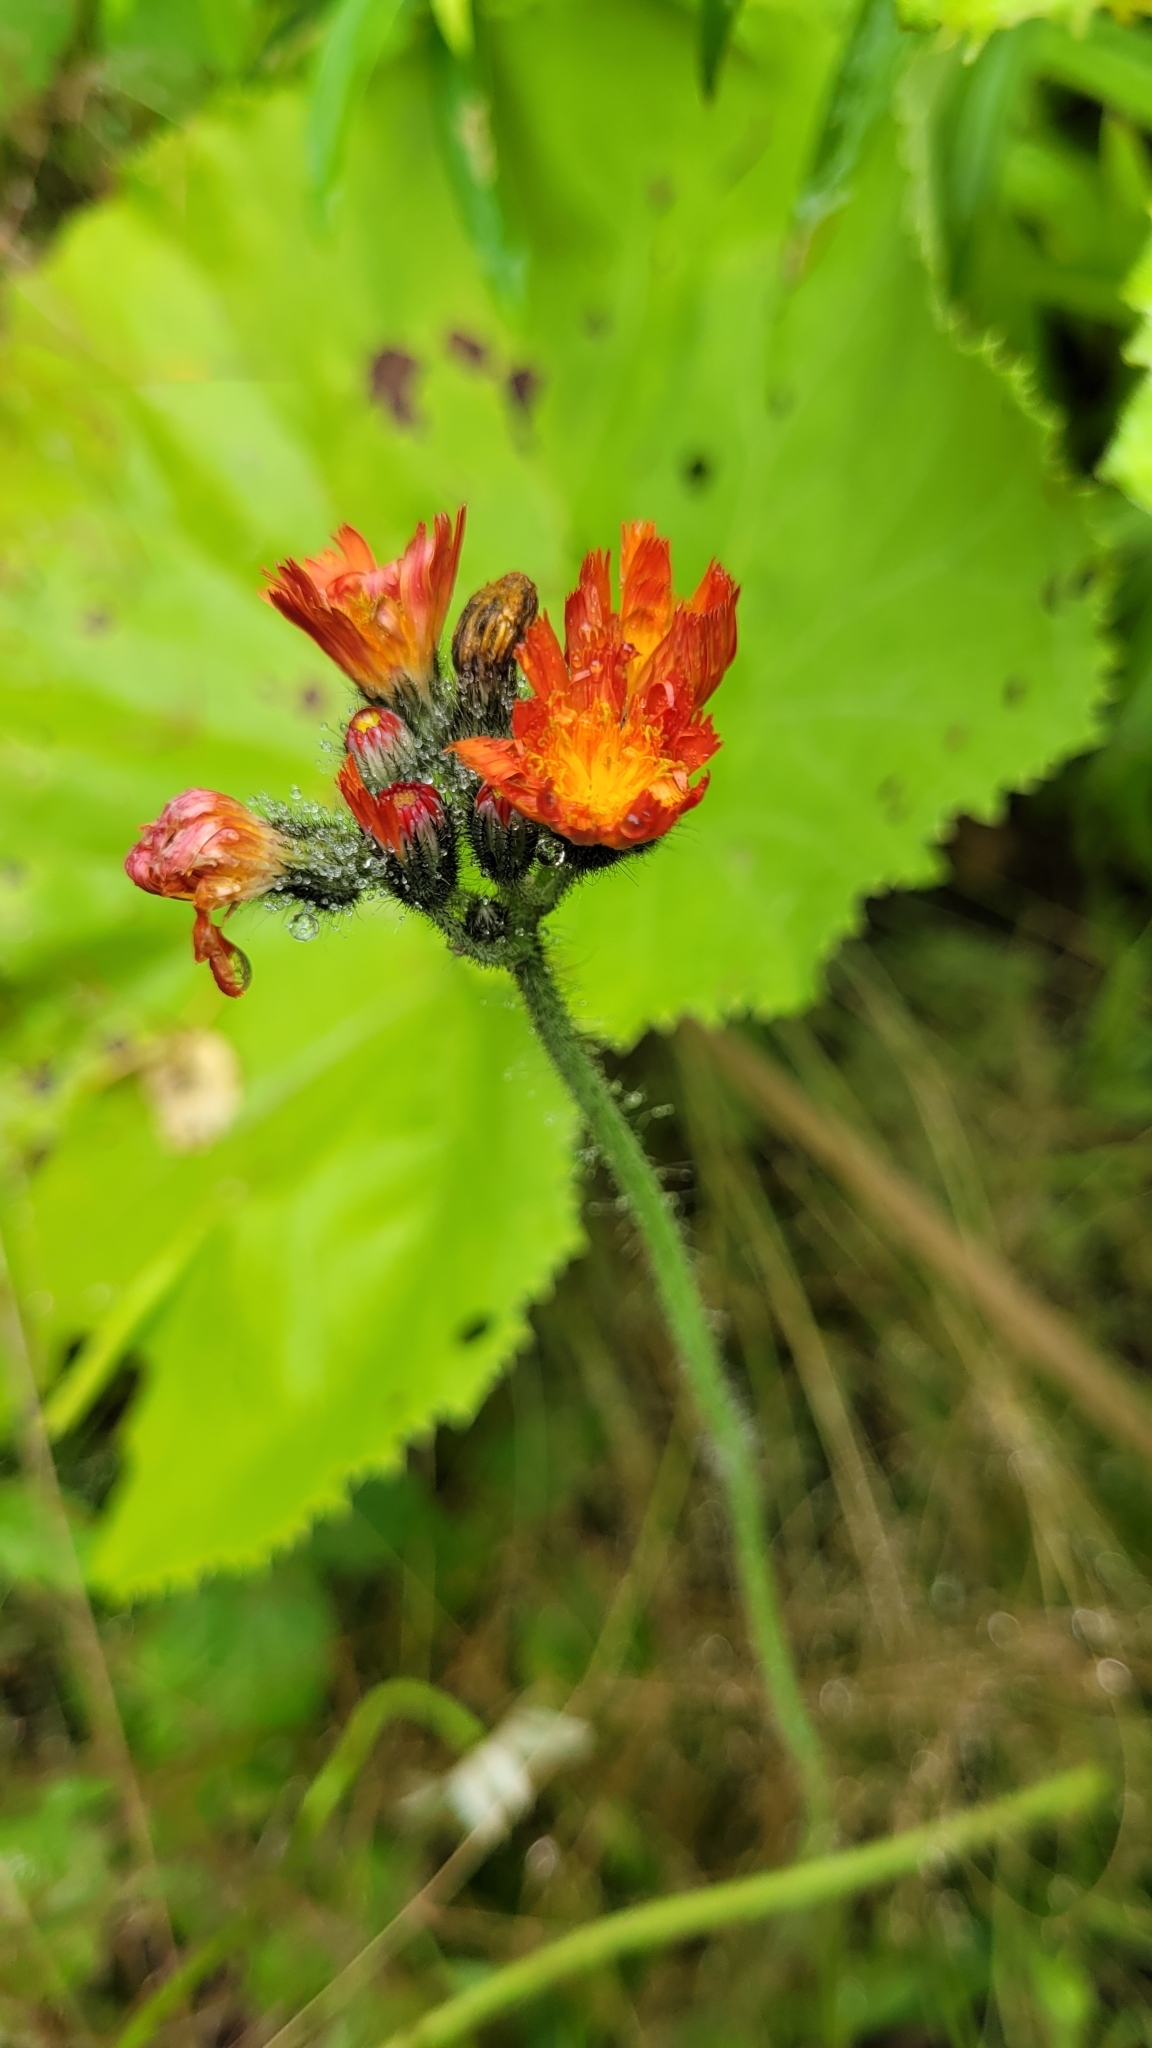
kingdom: Plantae
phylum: Tracheophyta
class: Magnoliopsida
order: Asterales
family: Asteraceae
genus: Pilosella
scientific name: Pilosella aurantiaca
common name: Fox-and-cubs
